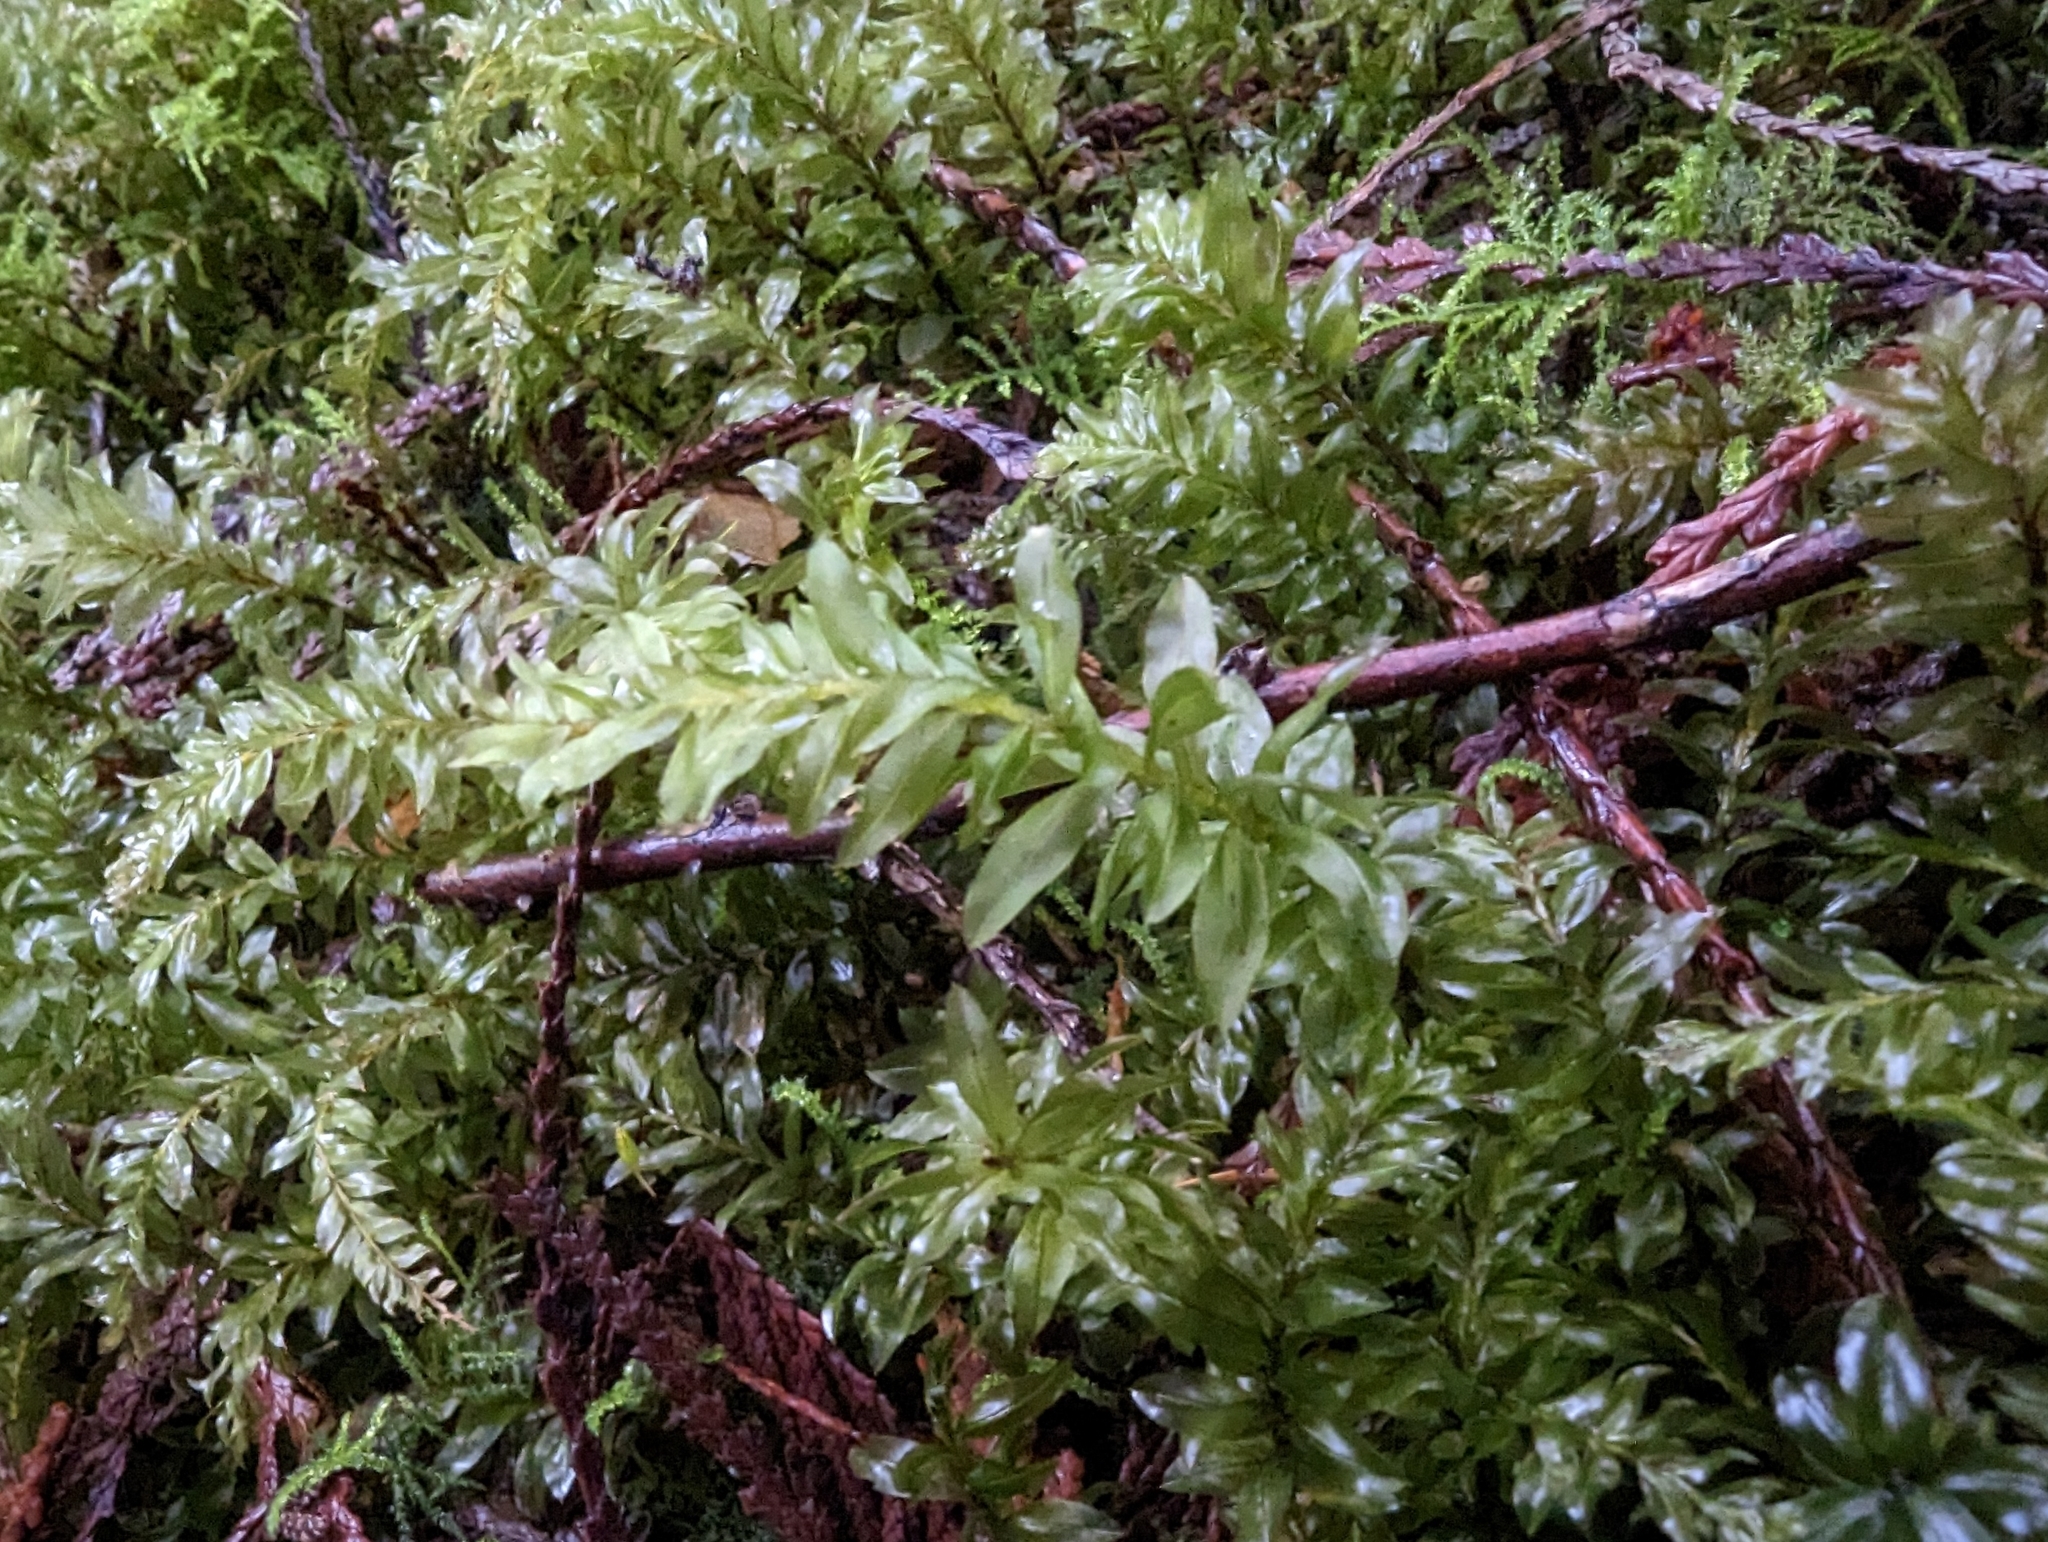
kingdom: Plantae
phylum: Bryophyta
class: Bryopsida
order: Bryales
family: Mniaceae
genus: Plagiomnium
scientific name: Plagiomnium insigne
